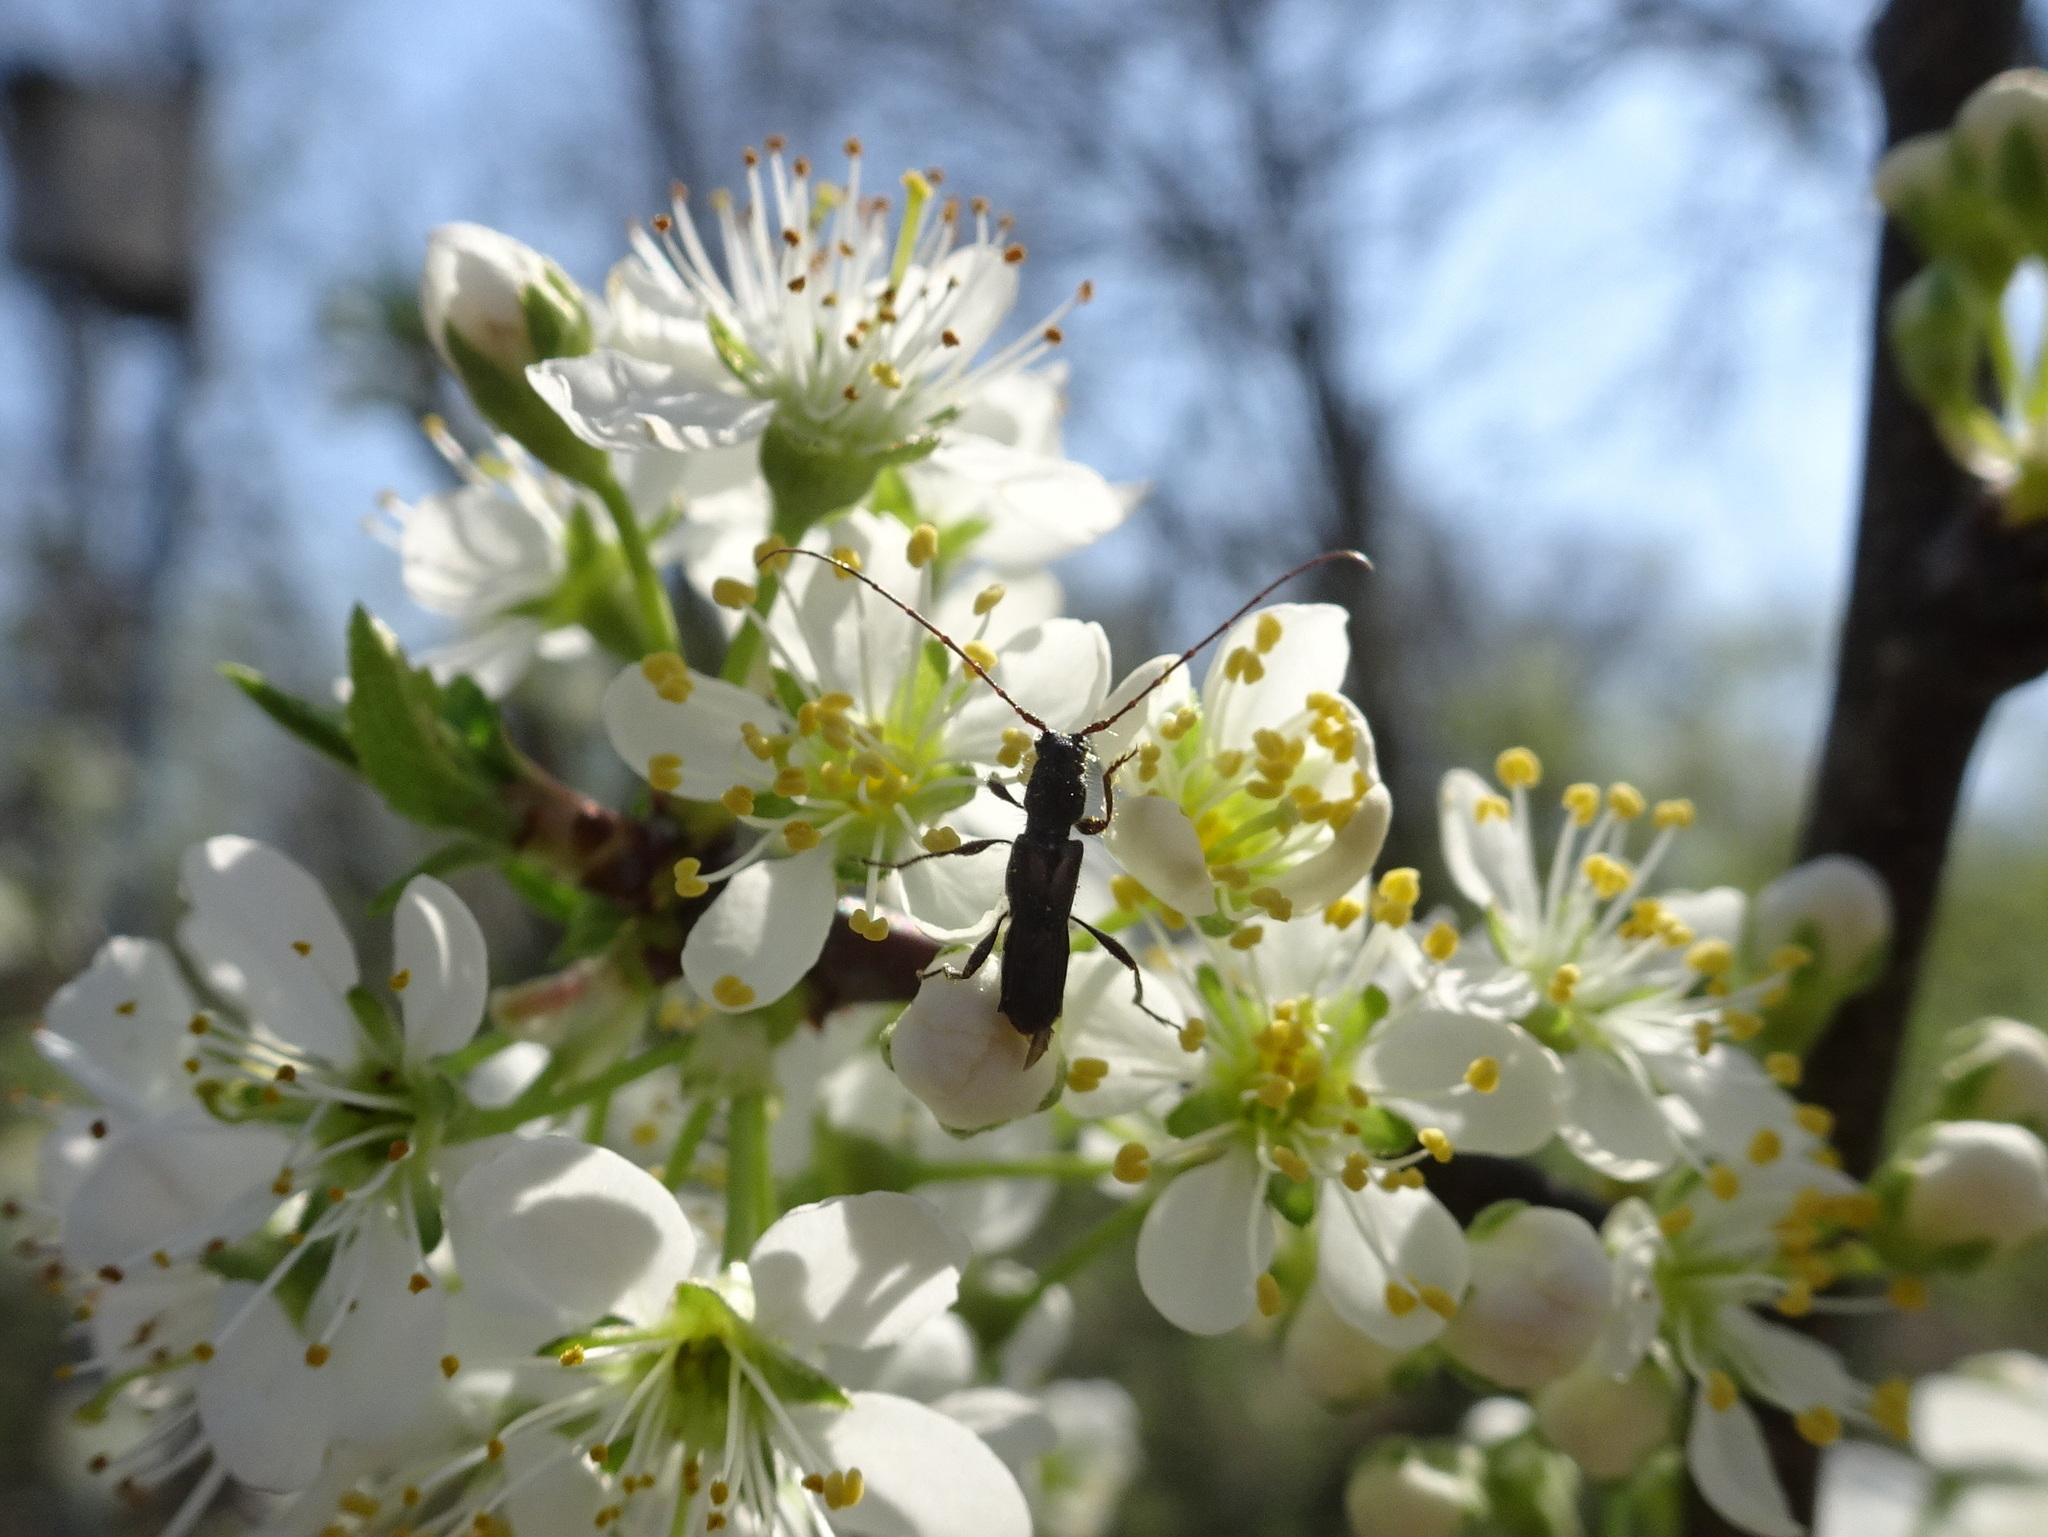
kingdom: Animalia
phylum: Arthropoda
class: Insecta
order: Coleoptera
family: Cerambycidae
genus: Molorchus
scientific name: Molorchus bimaculatus
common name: Bimaculate longhorn beetle
